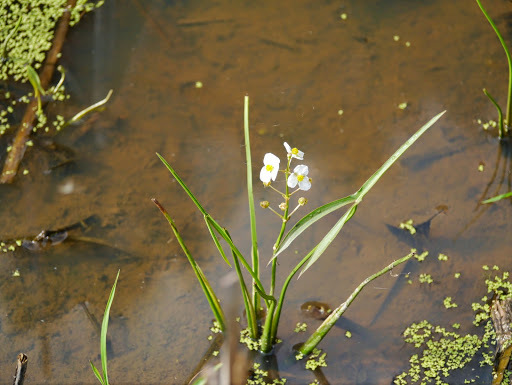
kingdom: Plantae
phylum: Tracheophyta
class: Liliopsida
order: Alismatales
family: Alismataceae
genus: Sagittaria
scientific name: Sagittaria latifolia
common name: Duck-potato
